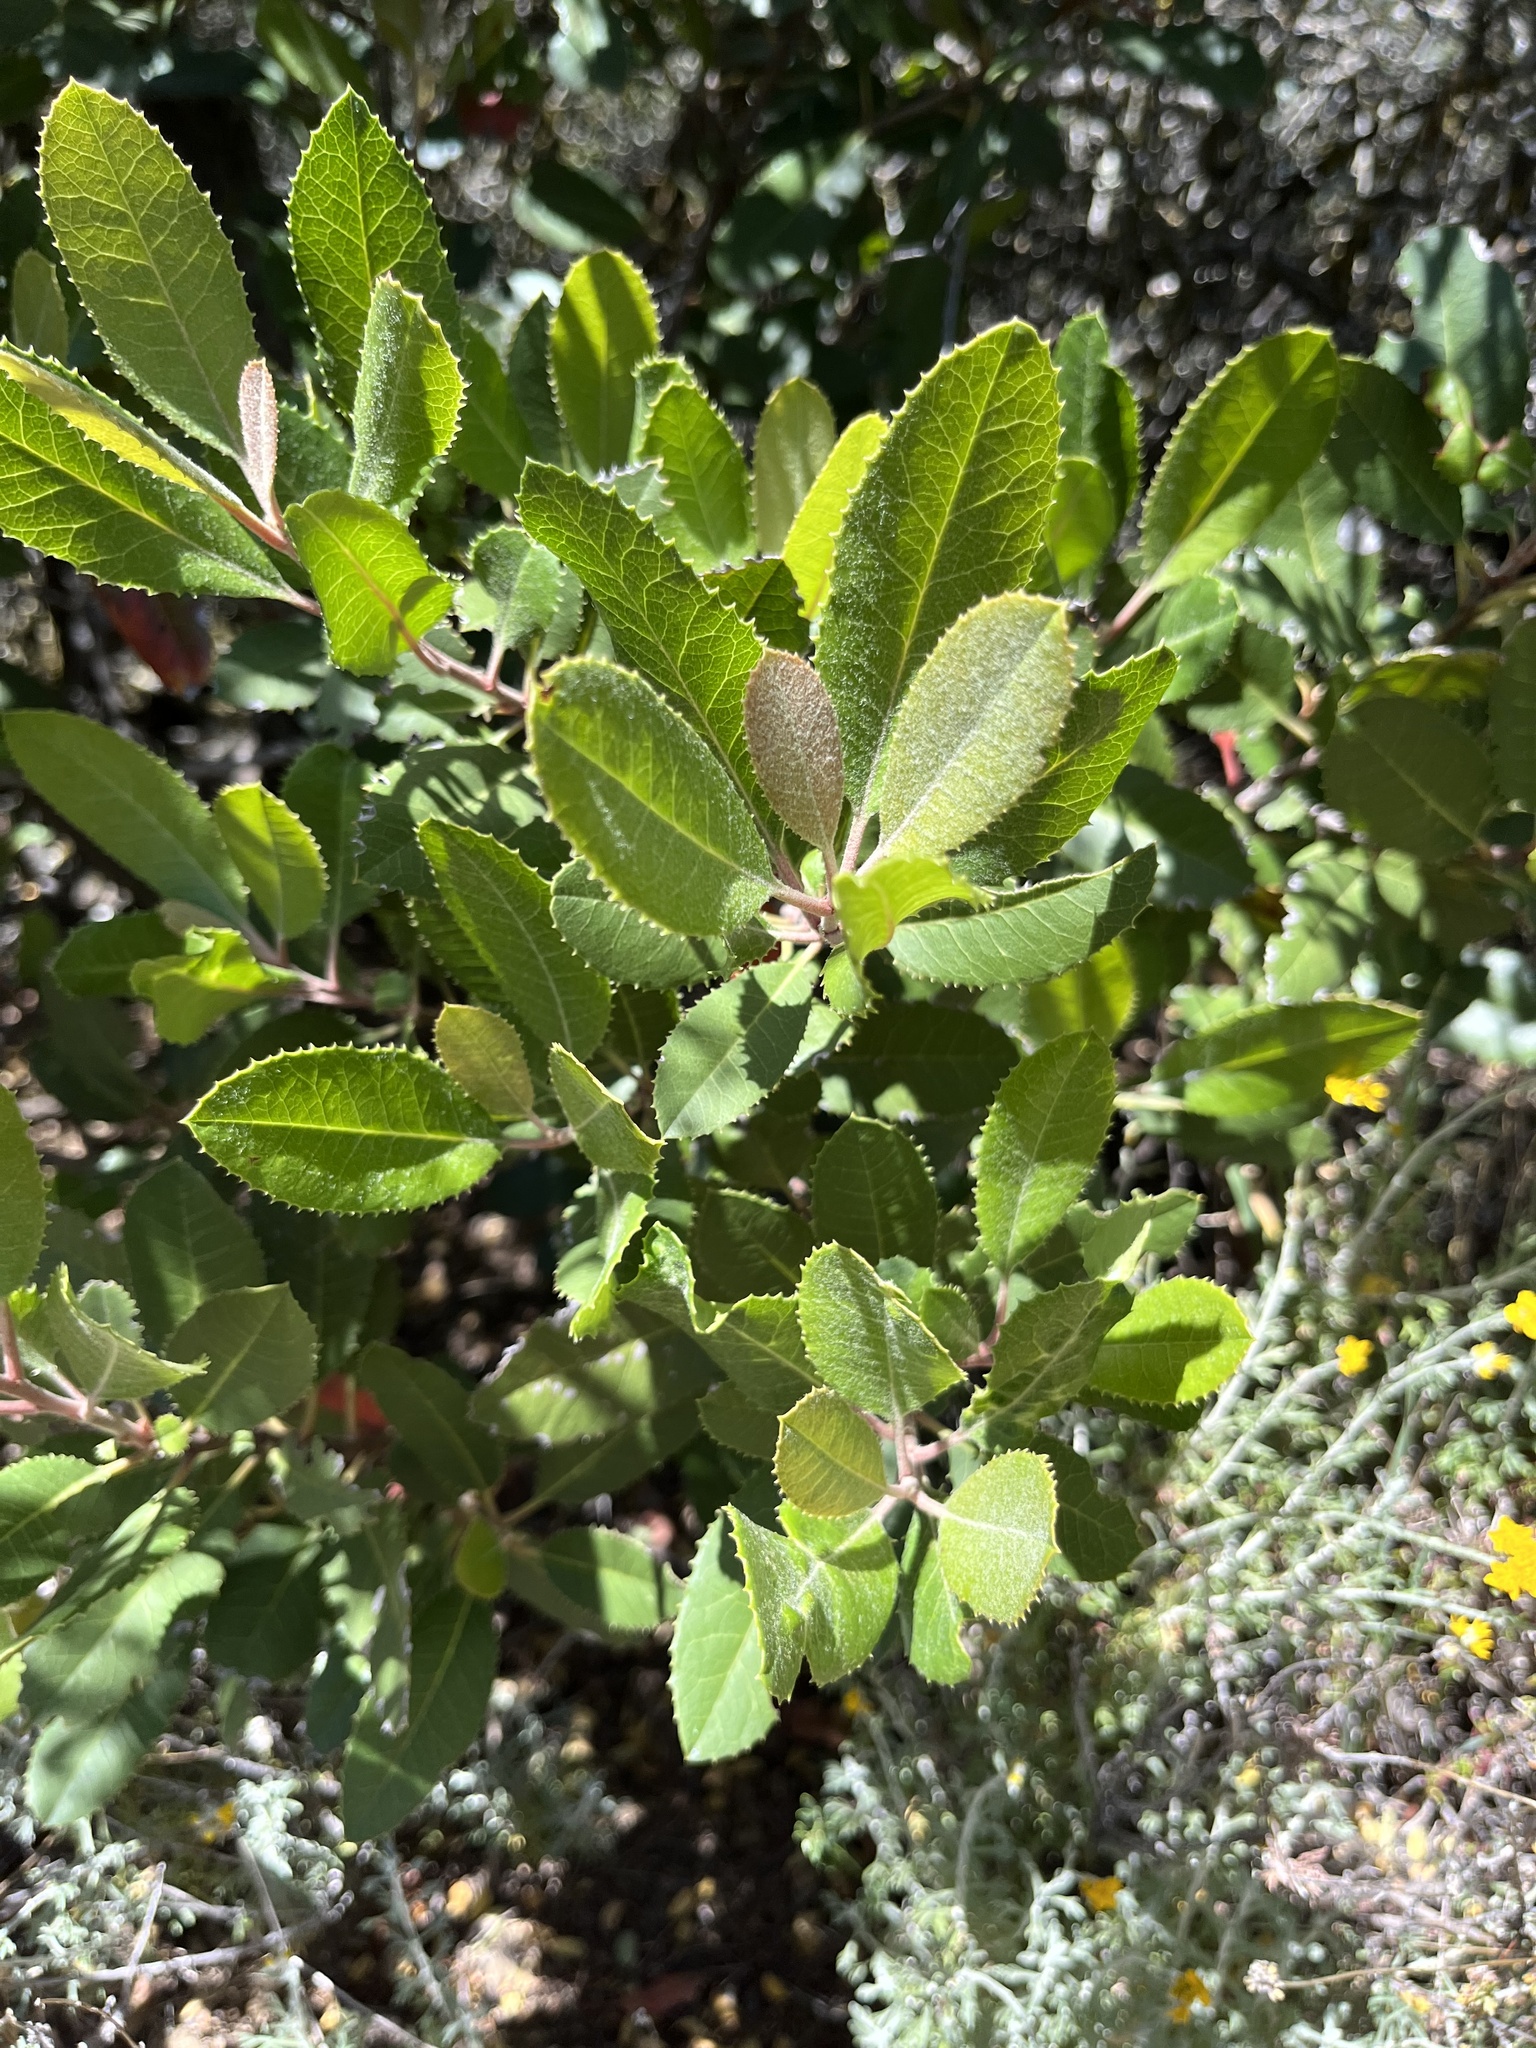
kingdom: Plantae
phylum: Tracheophyta
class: Magnoliopsida
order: Rosales
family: Rosaceae
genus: Heteromeles
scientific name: Heteromeles arbutifolia
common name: California-holly
